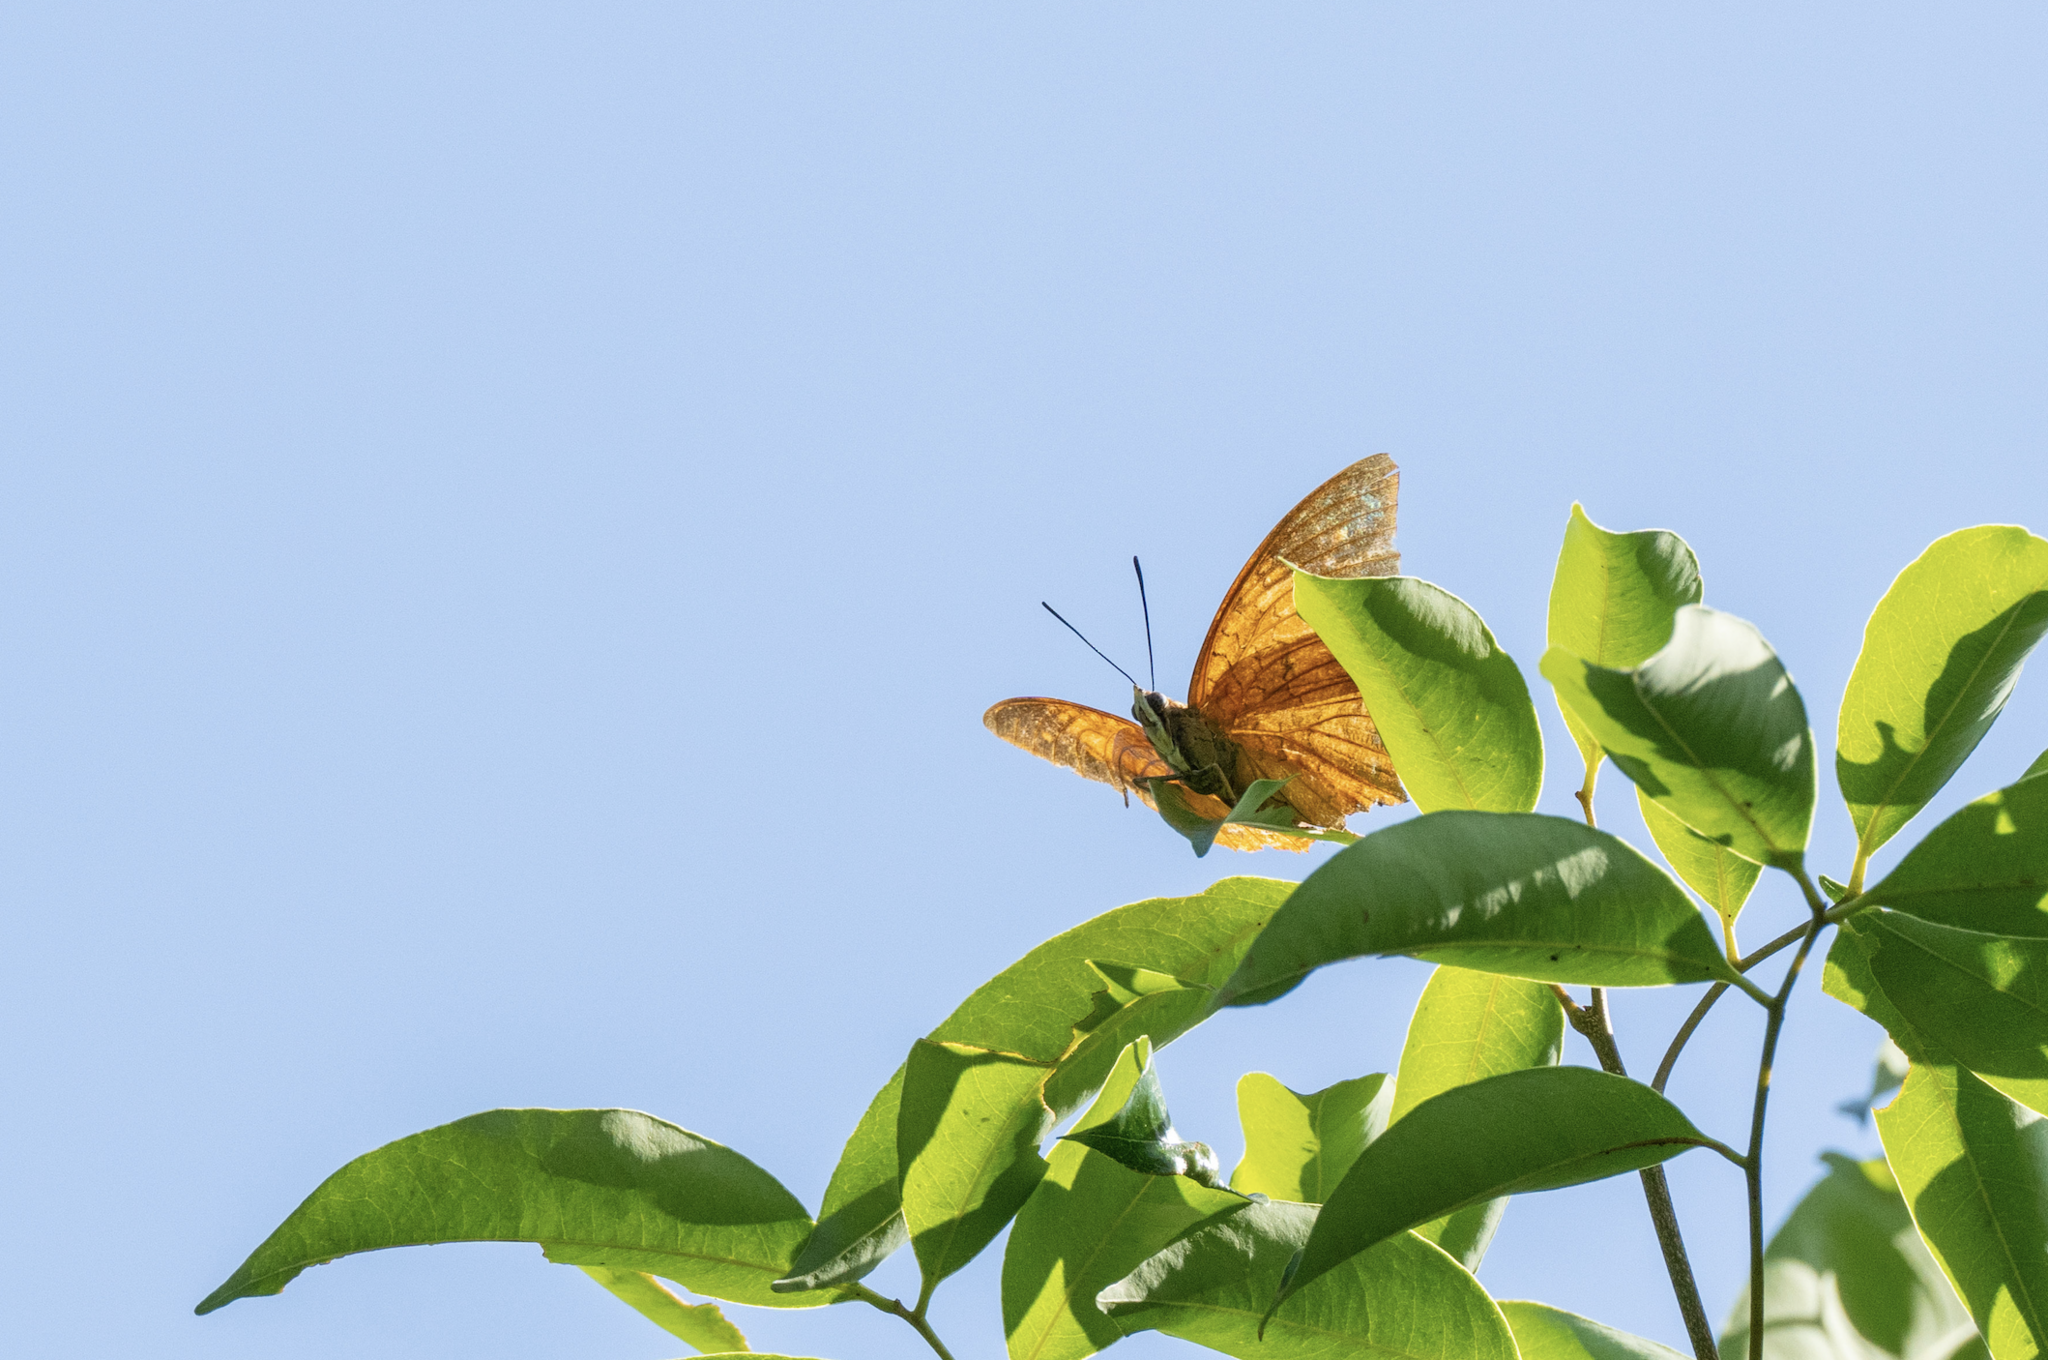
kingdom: Animalia
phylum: Arthropoda
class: Insecta
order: Lepidoptera
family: Nymphalidae
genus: Charaxes
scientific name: Charaxes bernardus
